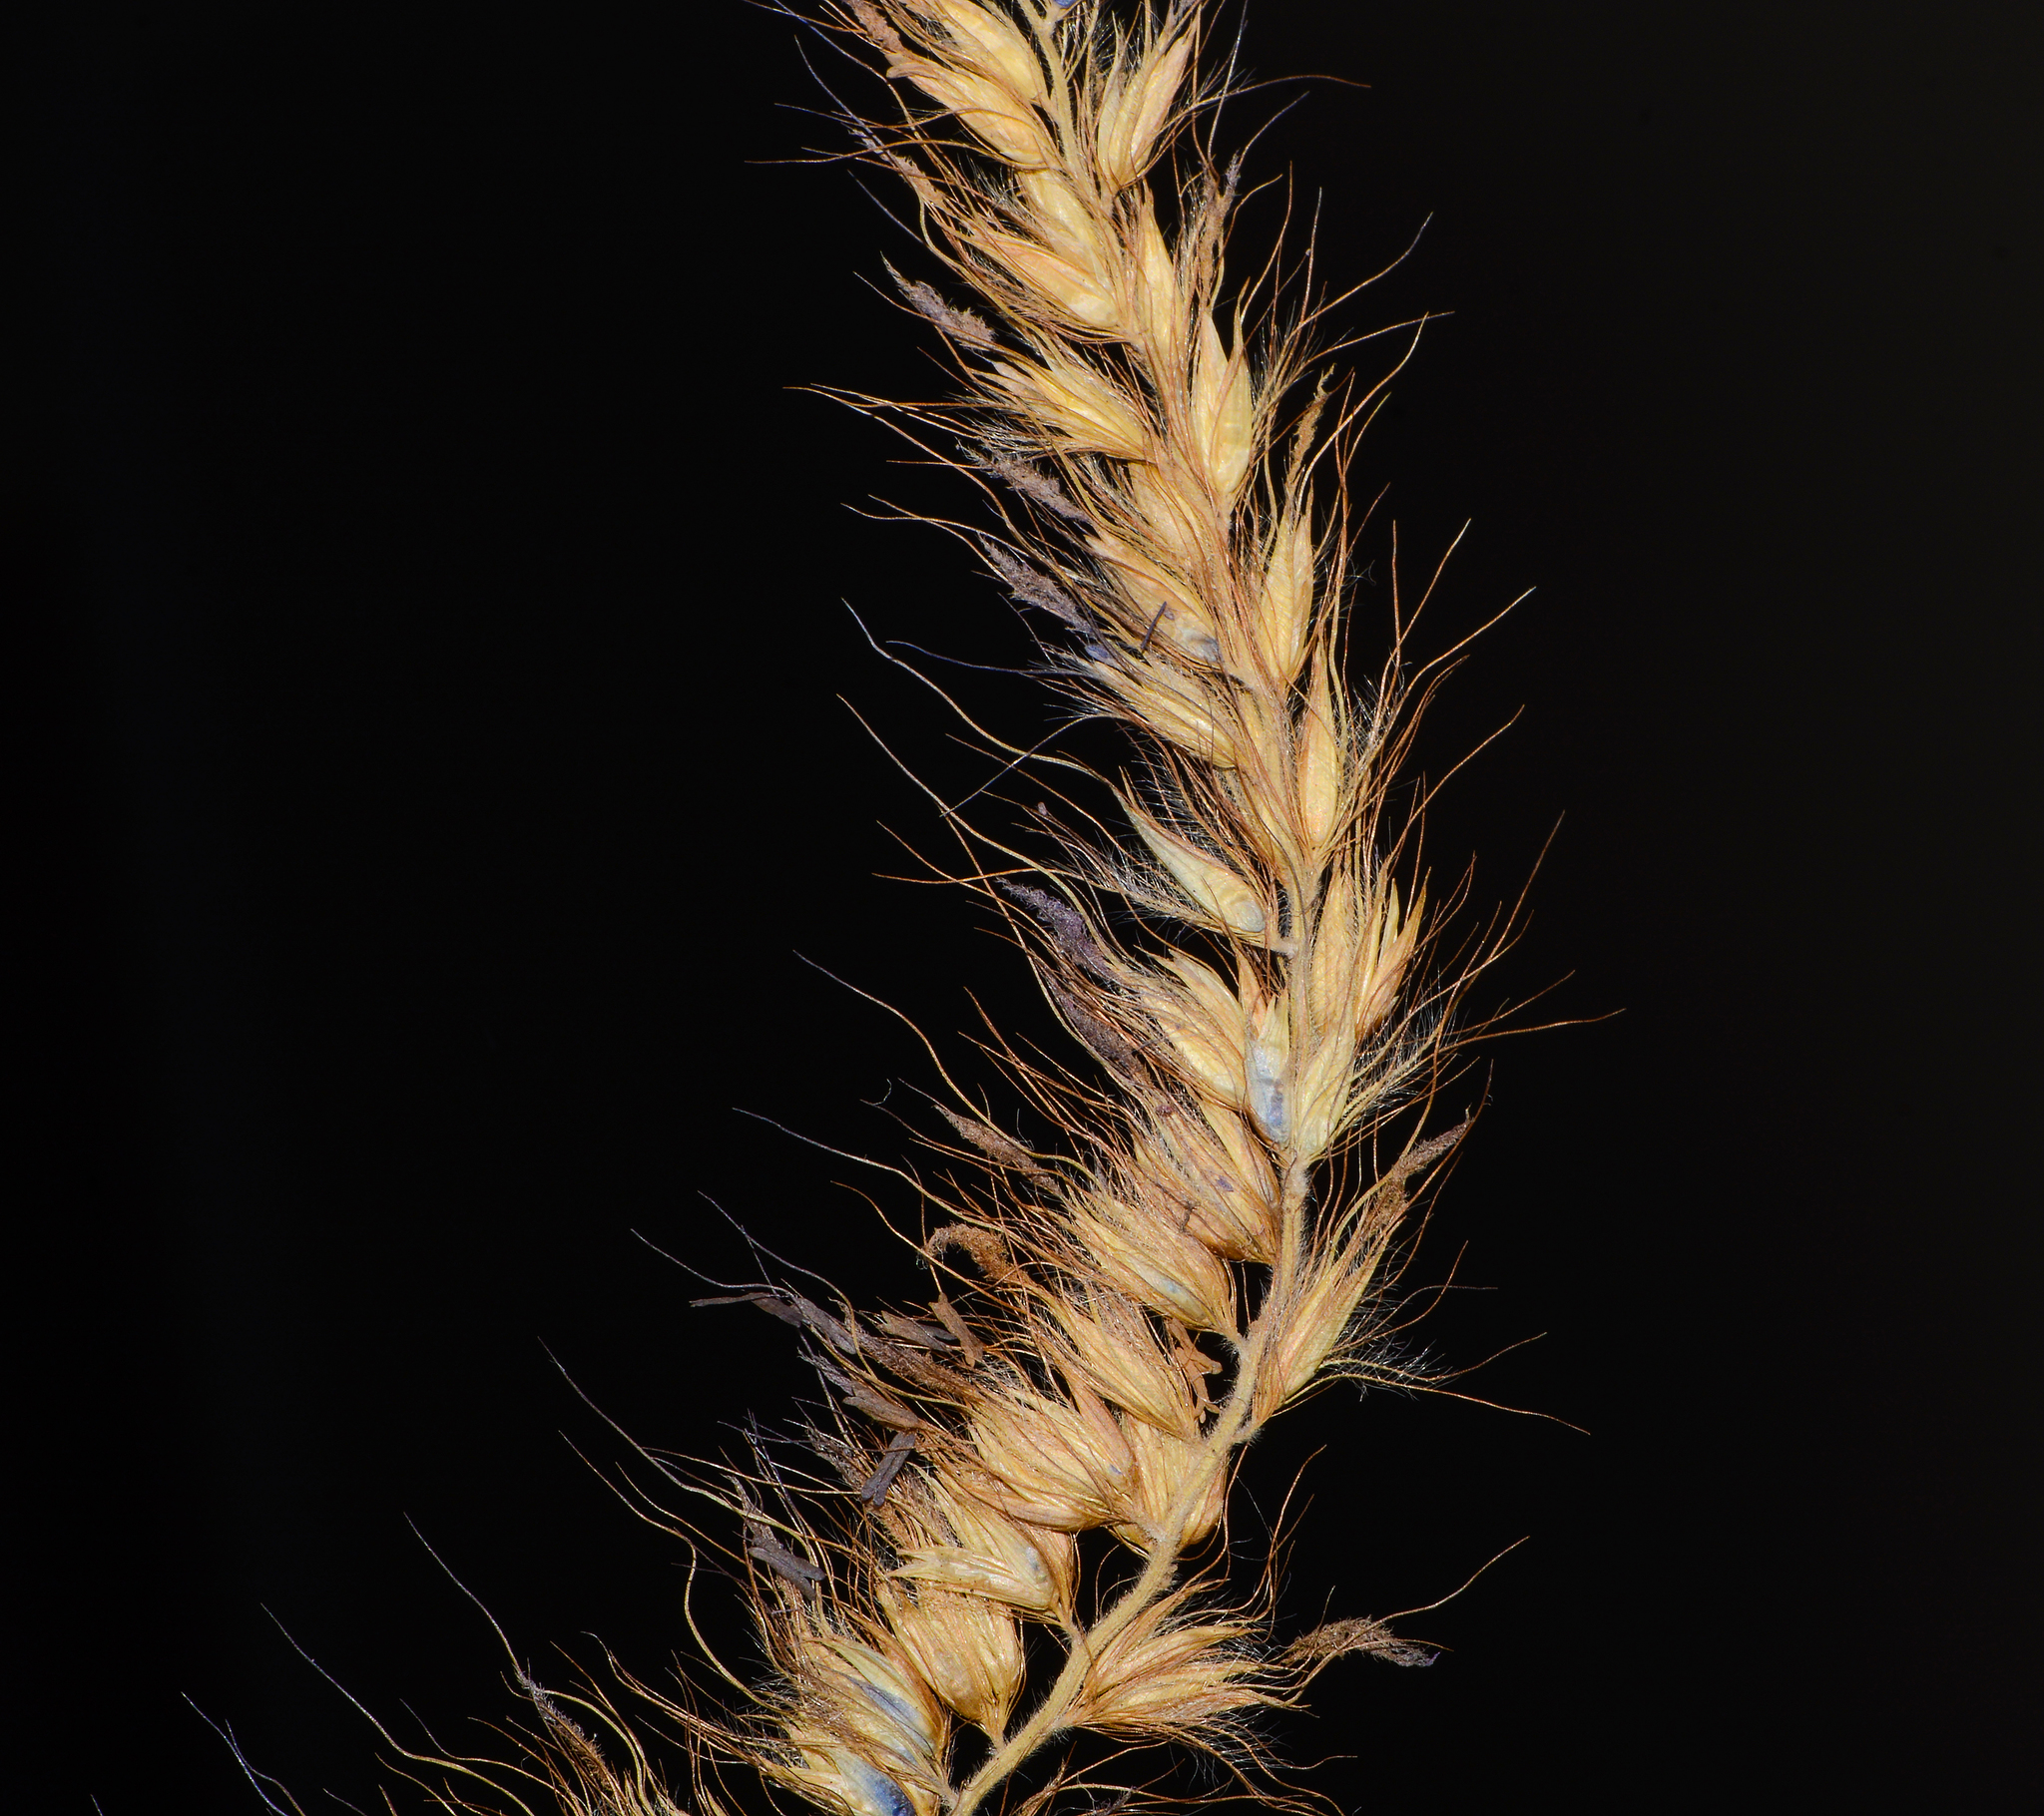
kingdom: Plantae
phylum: Tracheophyta
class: Liliopsida
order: Poales
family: Poaceae
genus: Cenchrus
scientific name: Cenchrus pedicellatus
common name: Hairy fountain grass
